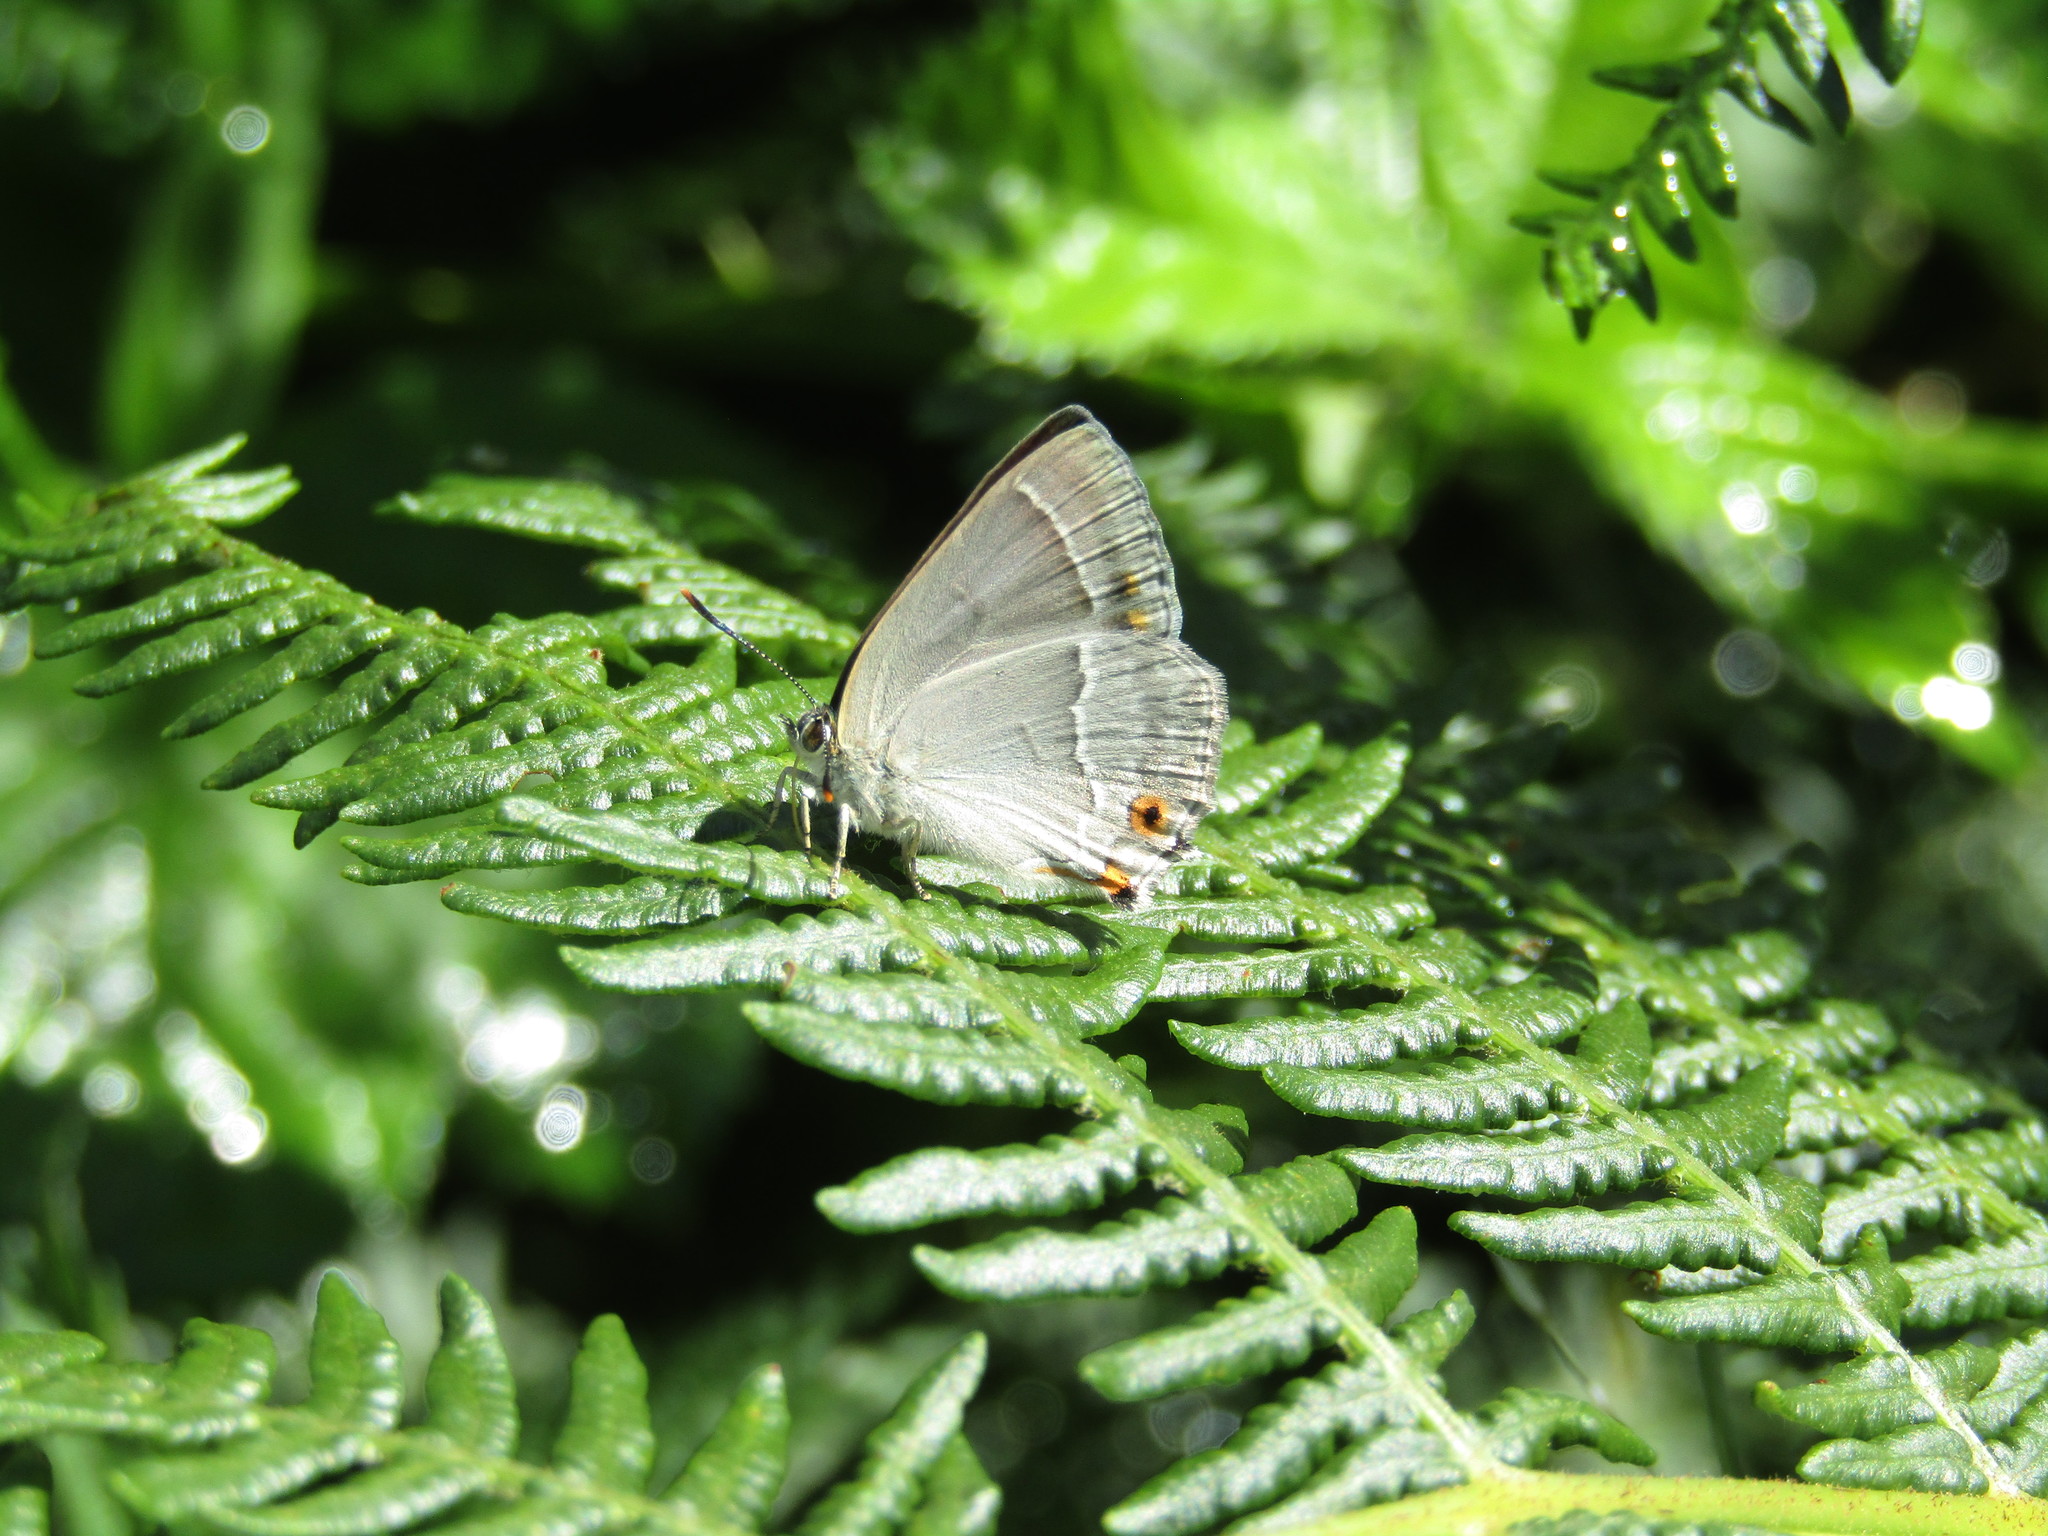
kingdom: Animalia
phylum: Arthropoda
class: Insecta
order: Lepidoptera
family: Lycaenidae
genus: Quercusia
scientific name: Quercusia quercus
